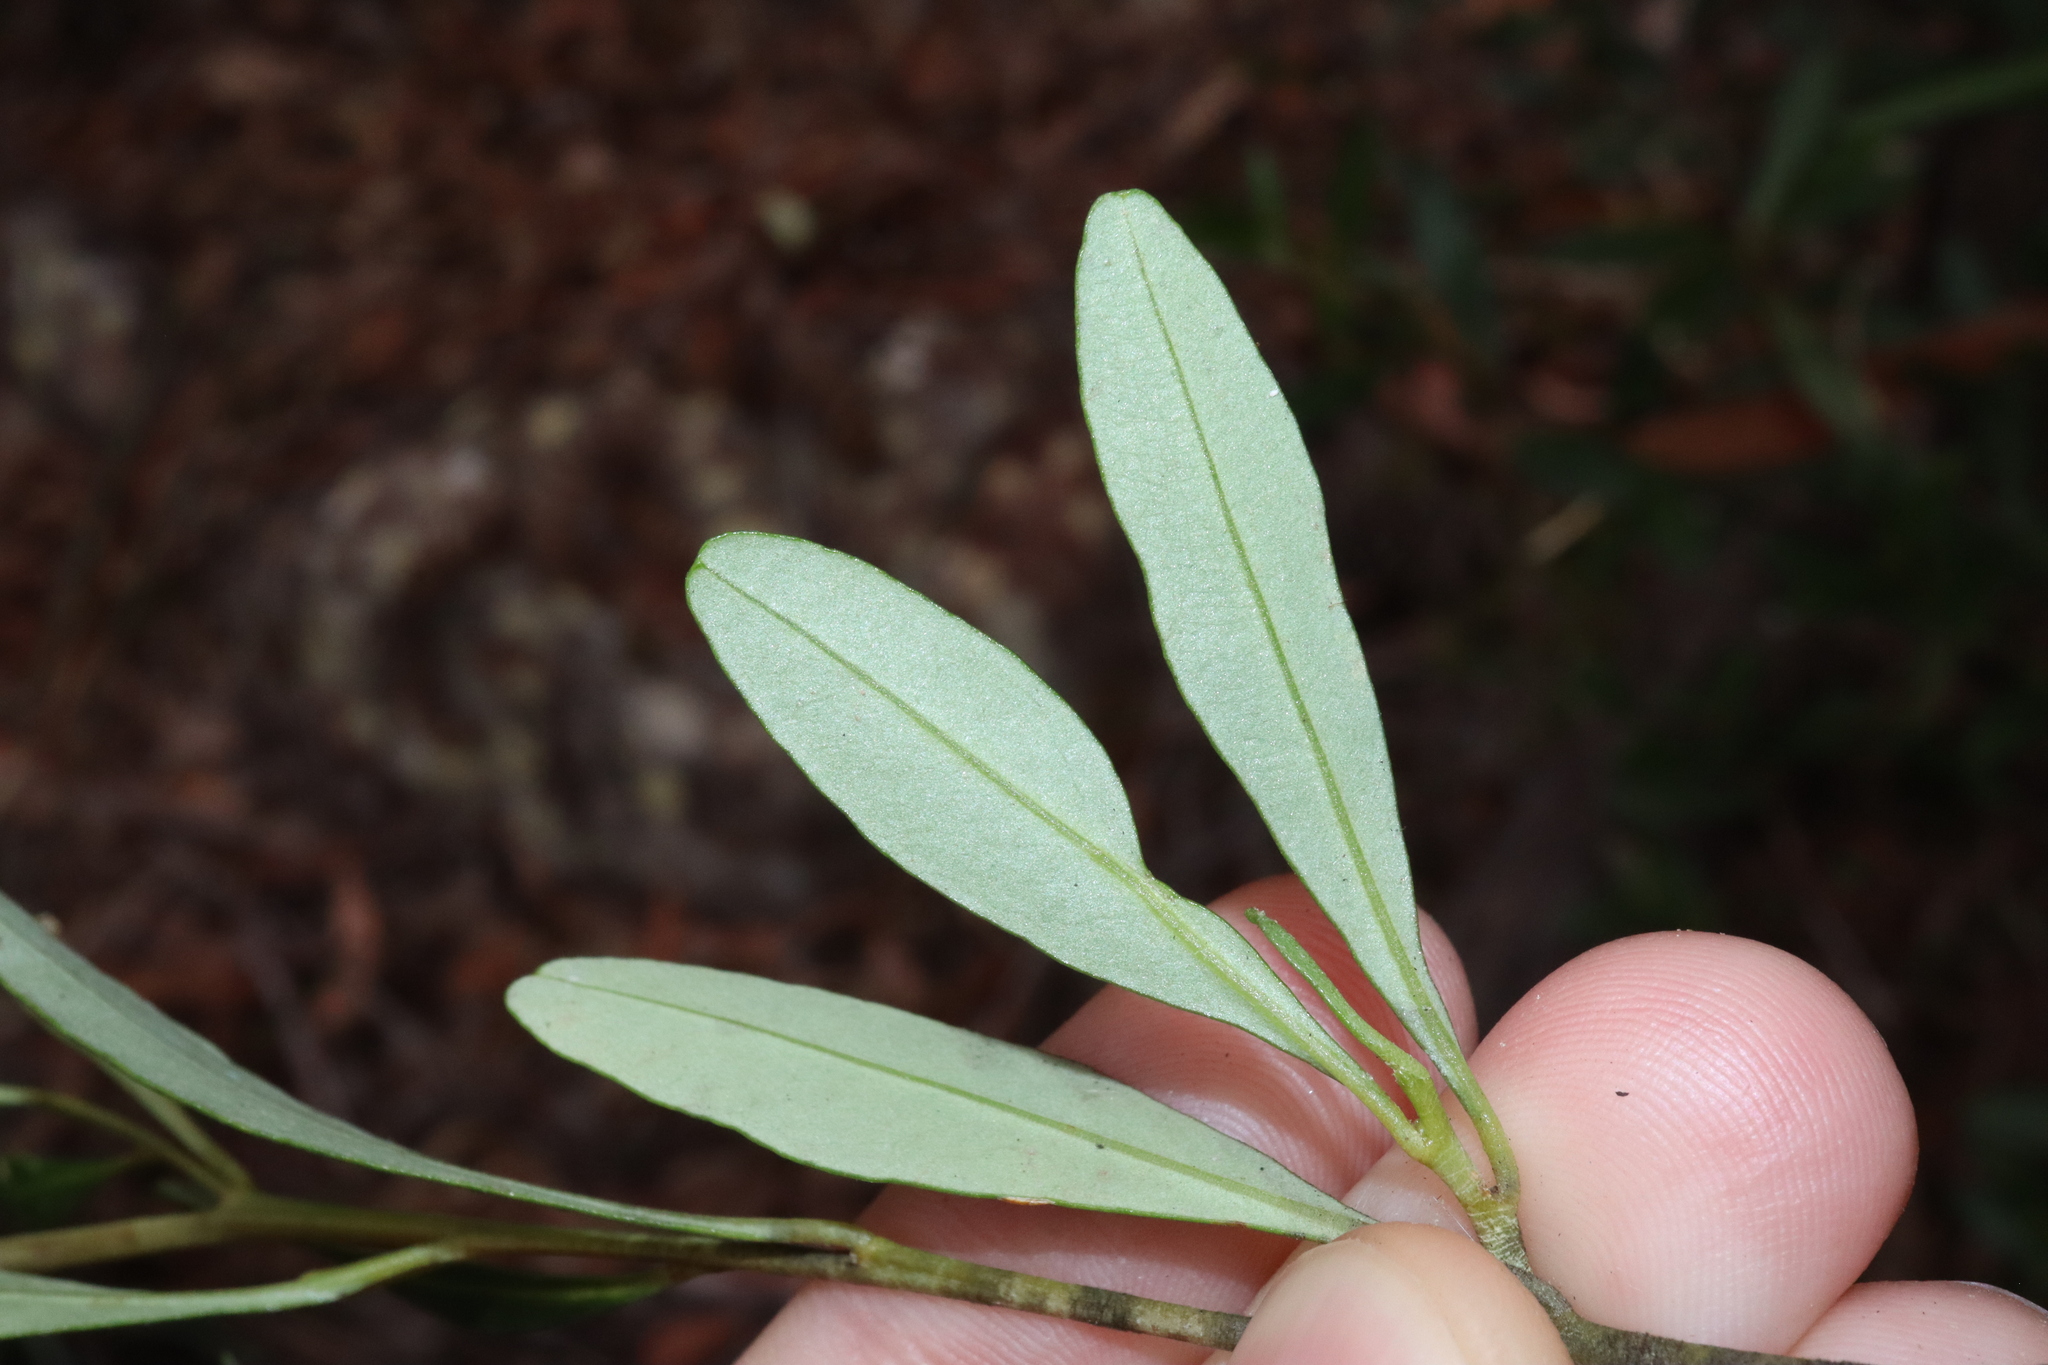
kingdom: Plantae
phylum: Tracheophyta
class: Magnoliopsida
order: Malpighiales
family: Euphorbiaceae
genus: Beyeria
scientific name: Beyeria viscosa
